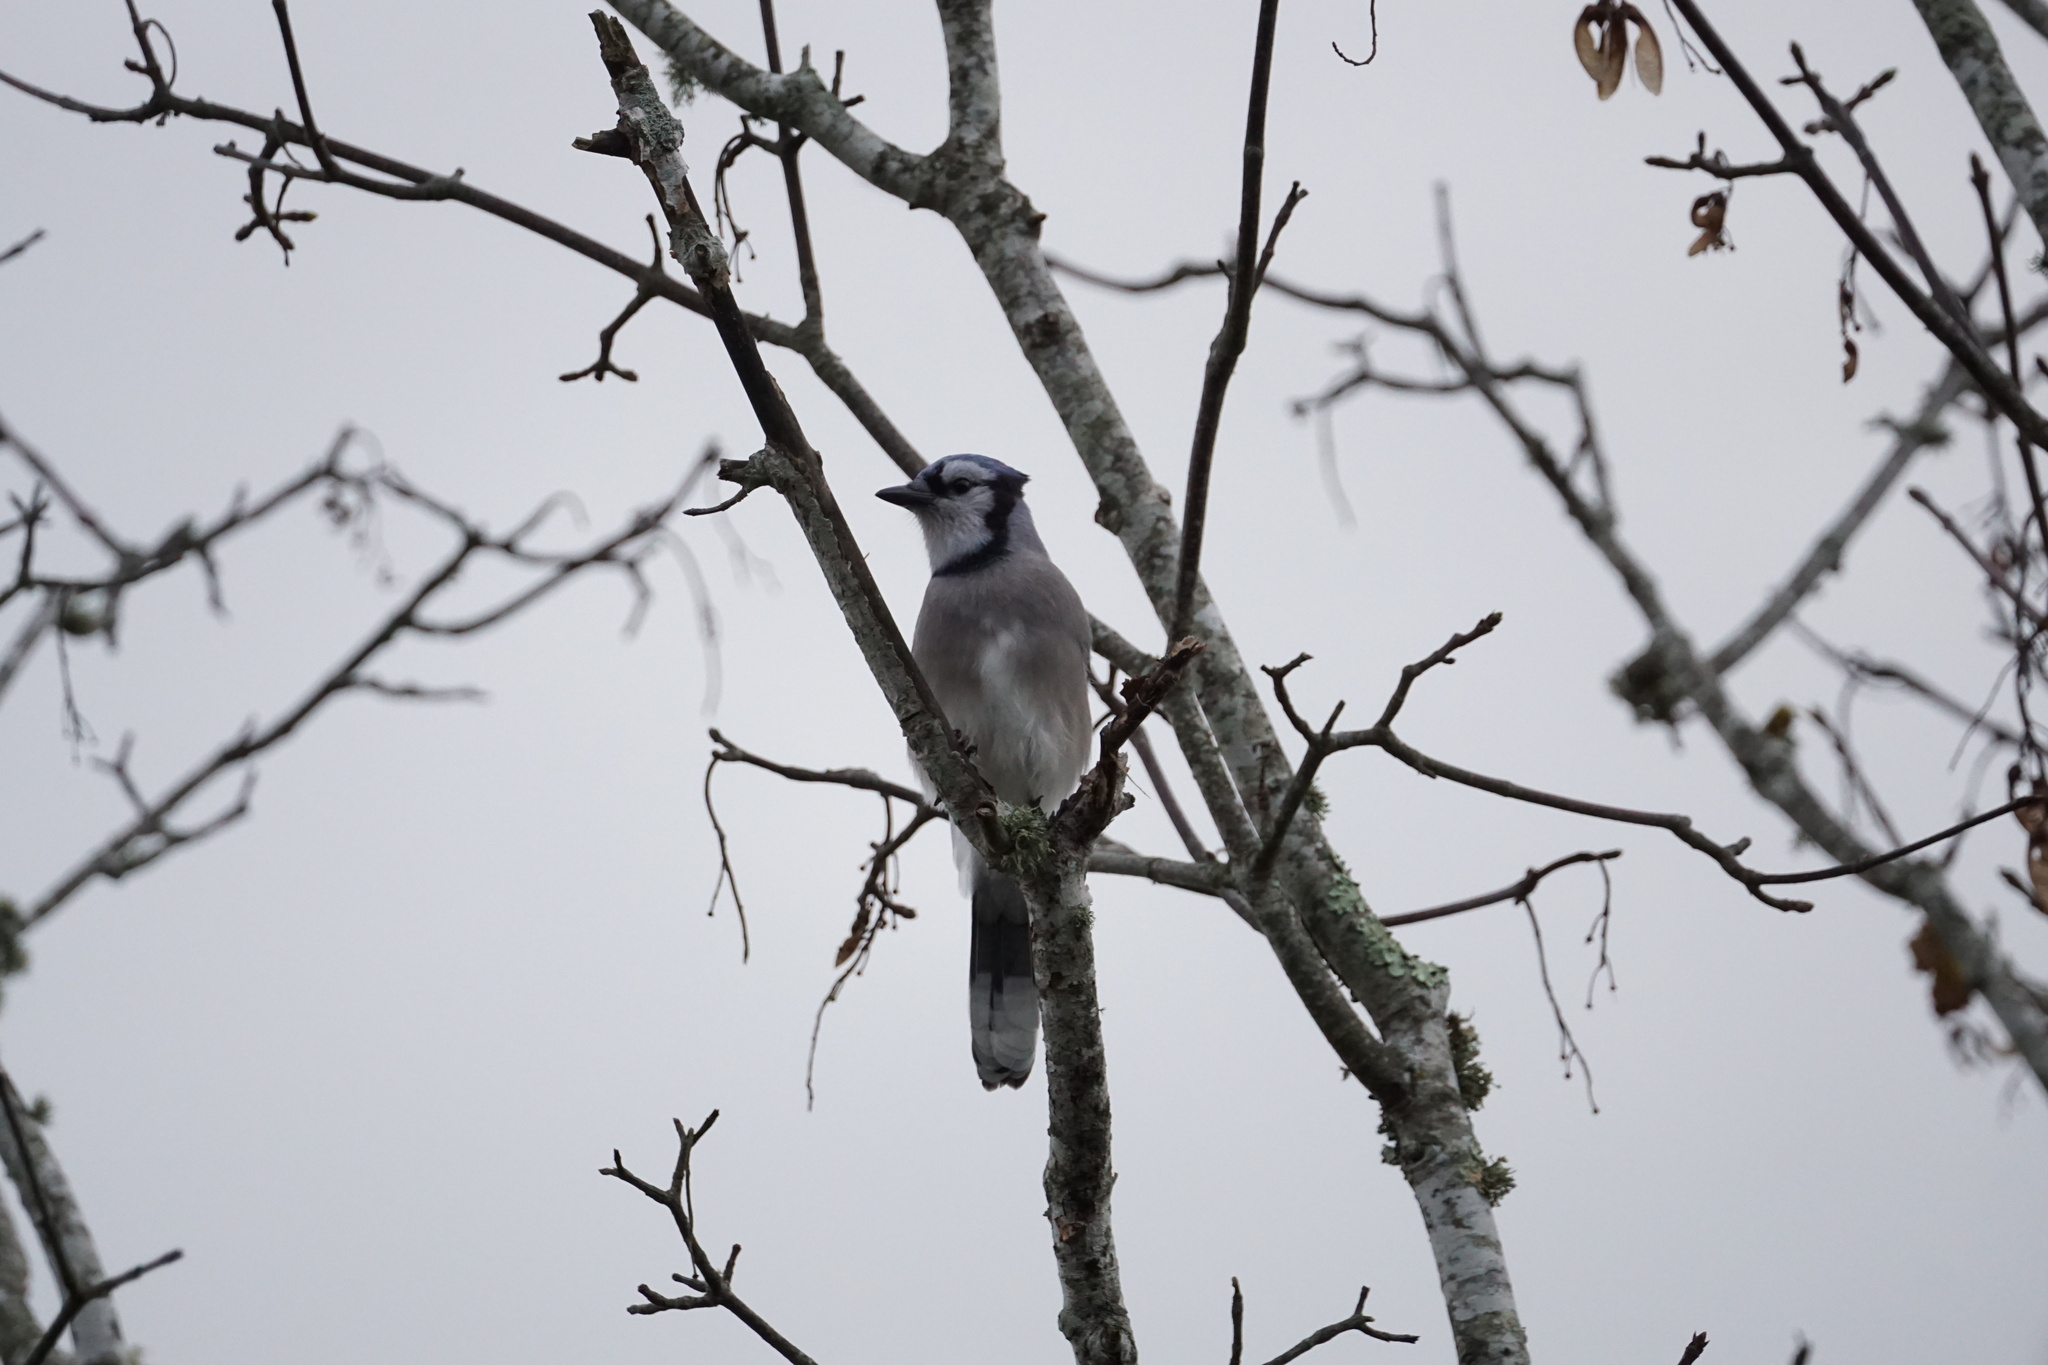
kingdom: Animalia
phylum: Chordata
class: Aves
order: Passeriformes
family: Corvidae
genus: Cyanocitta
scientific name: Cyanocitta cristata
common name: Blue jay
